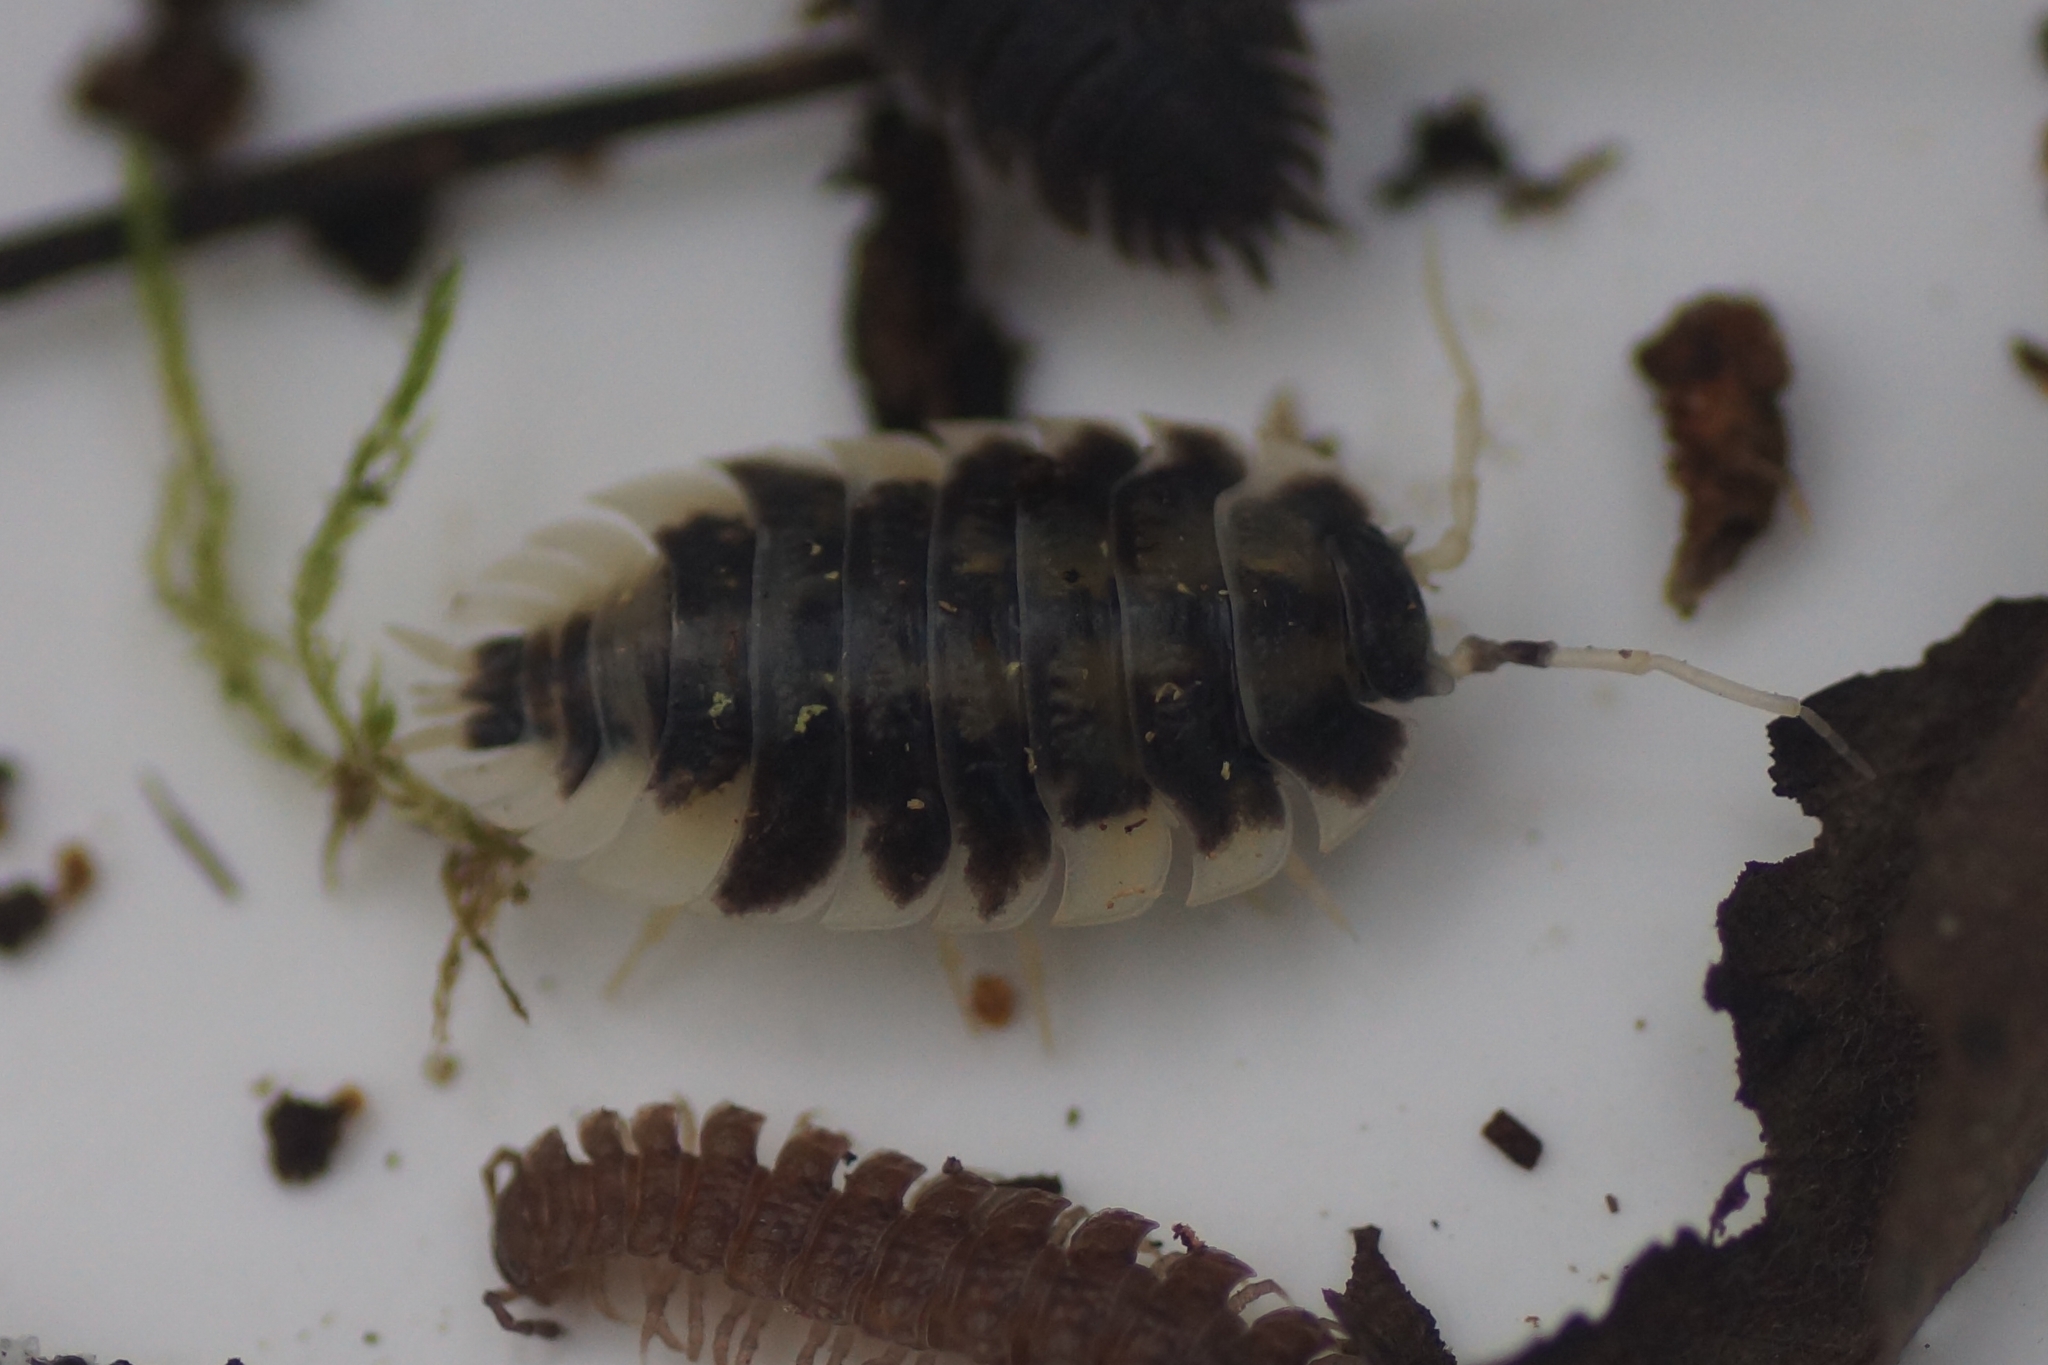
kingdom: Animalia
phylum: Arthropoda
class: Malacostraca
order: Isopoda
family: Oniscidae
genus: Oniscus
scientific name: Oniscus asellus
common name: Common shiny woodlouse
